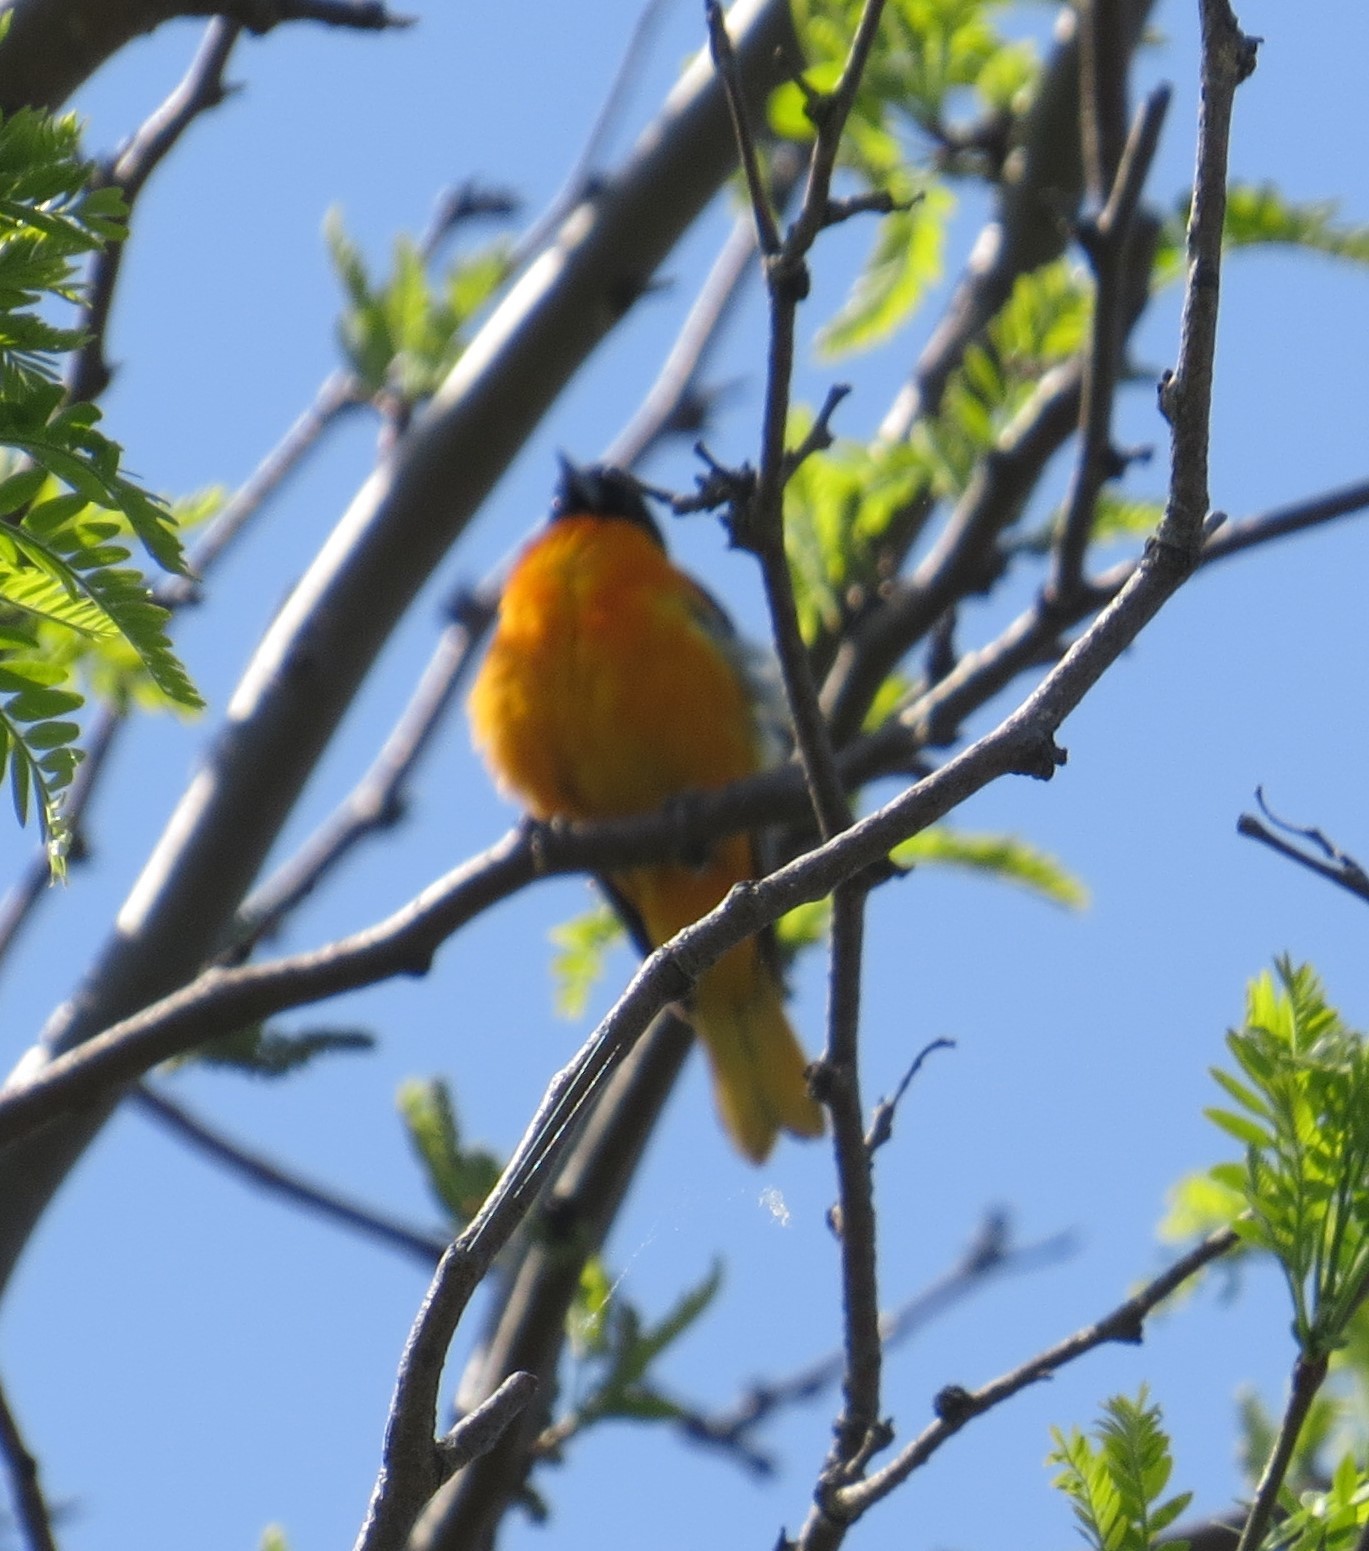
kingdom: Animalia
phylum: Chordata
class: Aves
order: Passeriformes
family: Icteridae
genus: Icterus
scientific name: Icterus galbula
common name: Baltimore oriole
